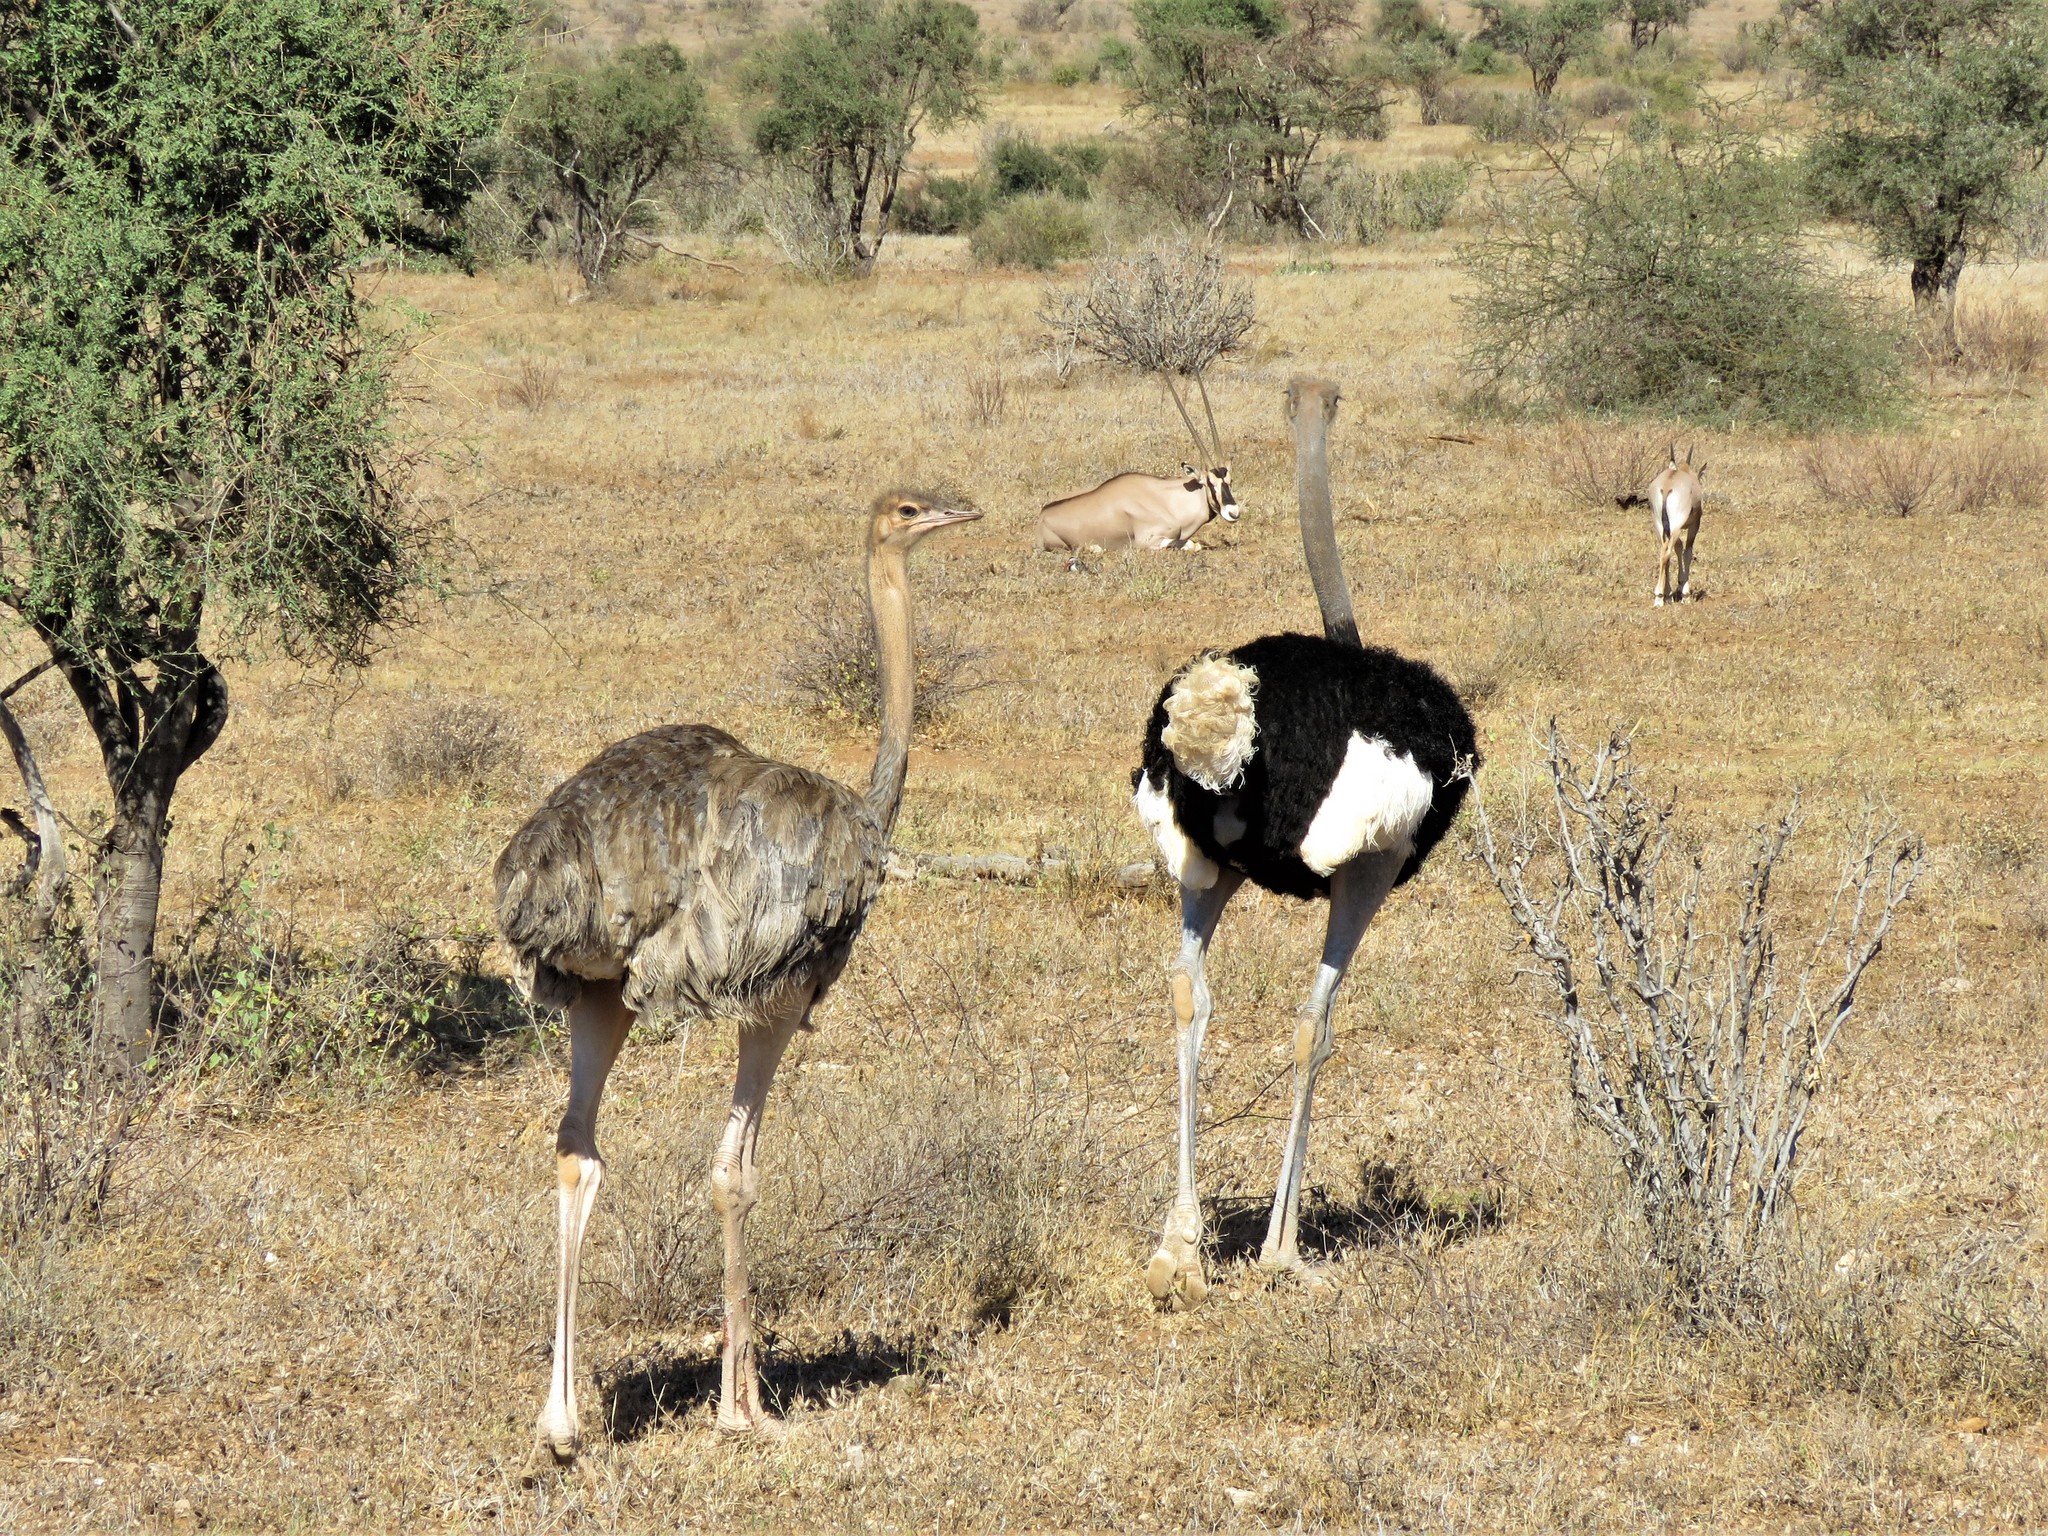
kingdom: Animalia
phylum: Chordata
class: Aves
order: Struthioniformes
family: Struthionidae
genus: Struthio
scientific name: Struthio molybdophanes
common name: Somali ostrich
